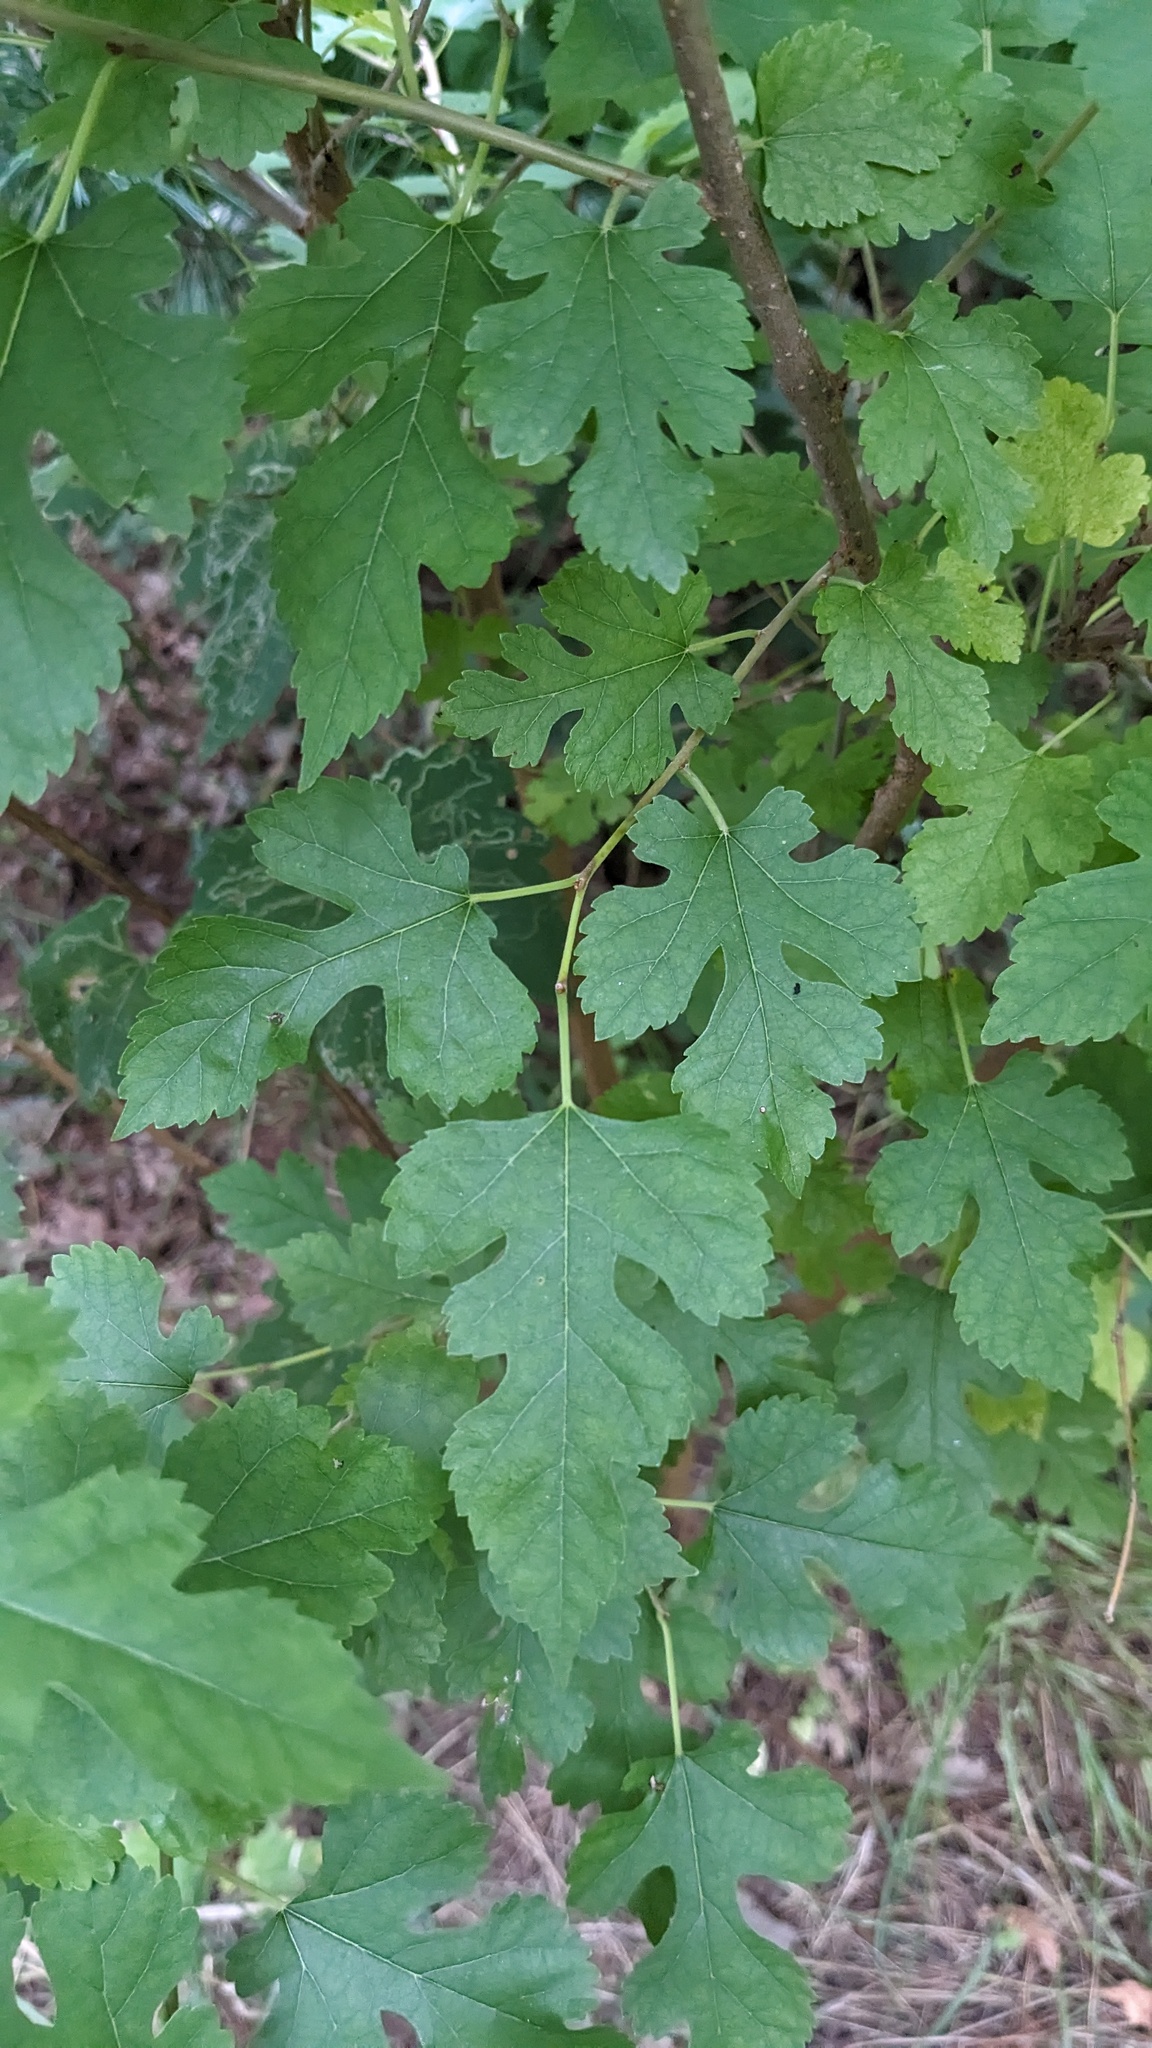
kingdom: Plantae
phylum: Tracheophyta
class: Magnoliopsida
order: Rosales
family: Moraceae
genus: Morus
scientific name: Morus alba
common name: White mulberry
